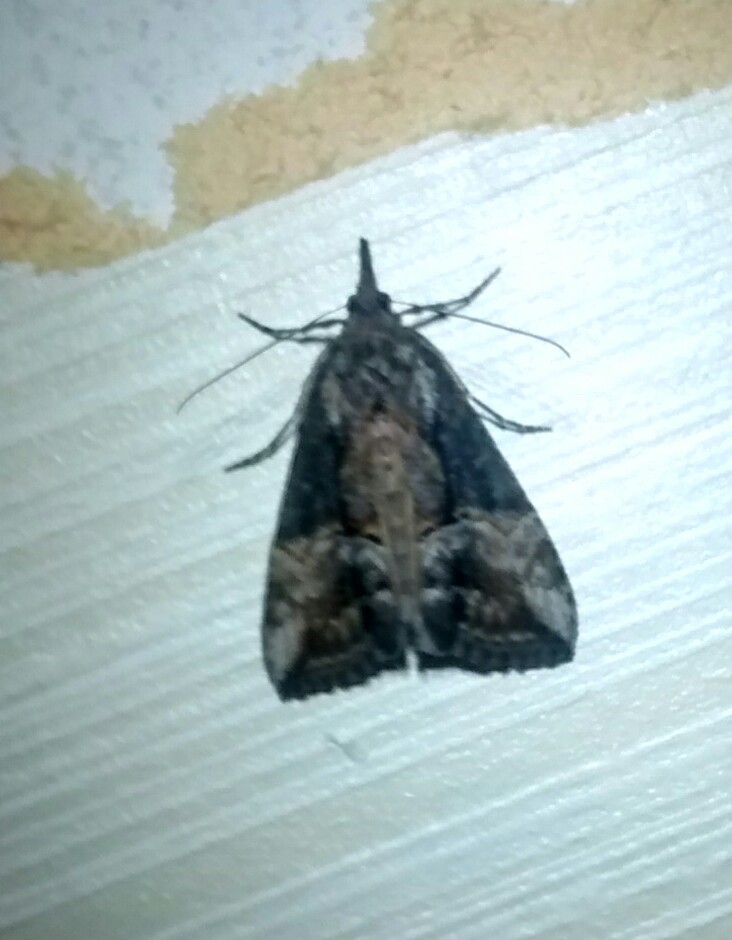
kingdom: Animalia
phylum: Arthropoda
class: Insecta
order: Lepidoptera
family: Erebidae
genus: Hypena
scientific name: Hypena scabra
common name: Green cloverworm
